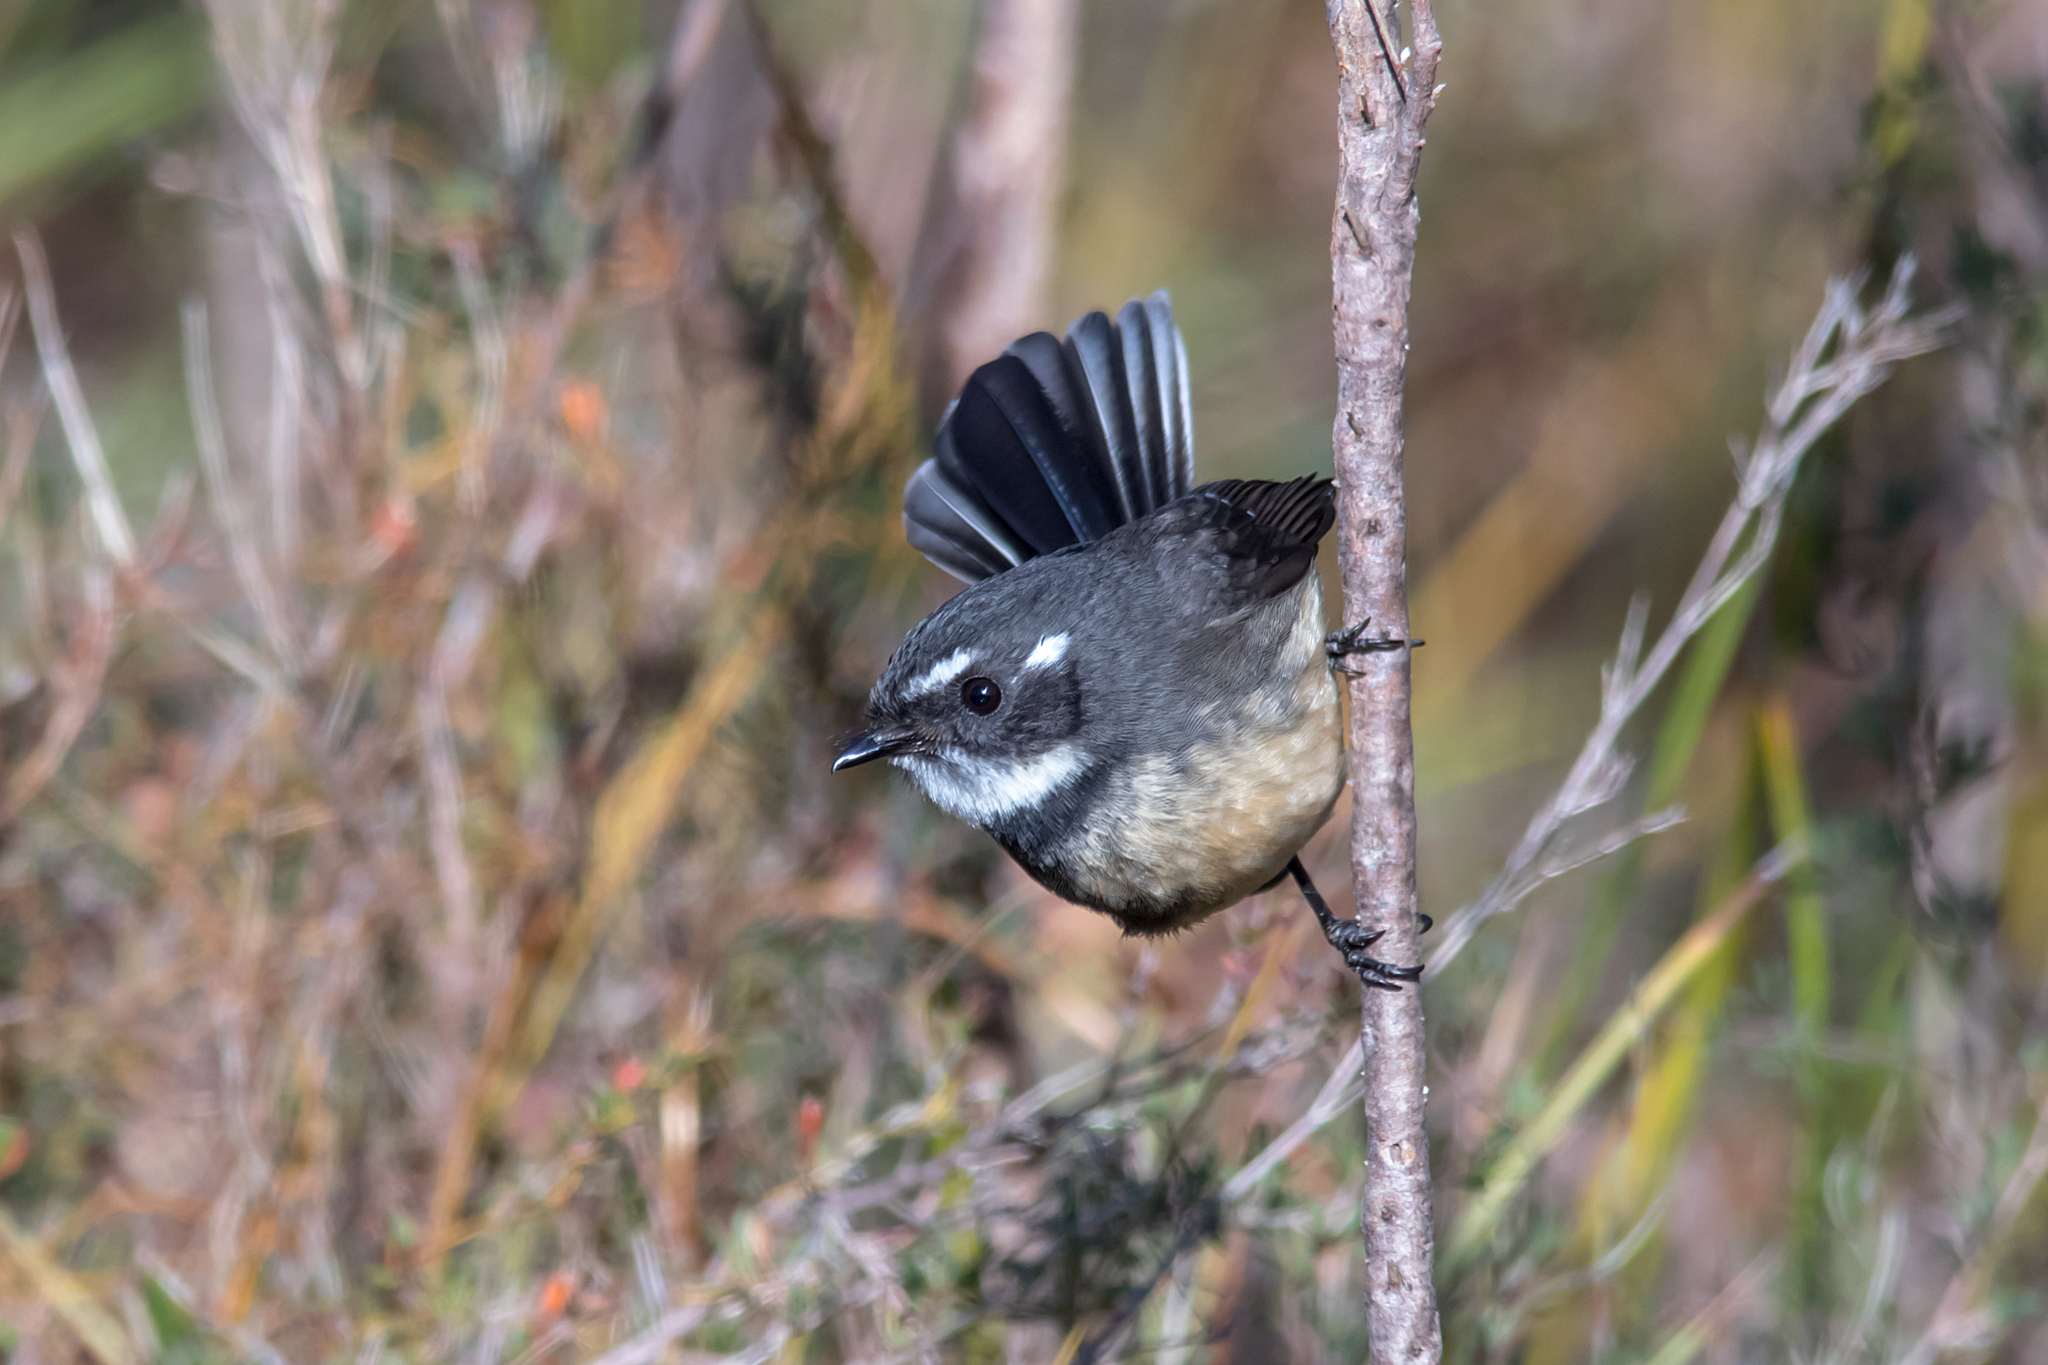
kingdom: Animalia
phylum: Chordata
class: Aves
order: Passeriformes
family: Rhipiduridae
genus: Rhipidura
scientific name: Rhipidura albiscapa
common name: Grey fantail
